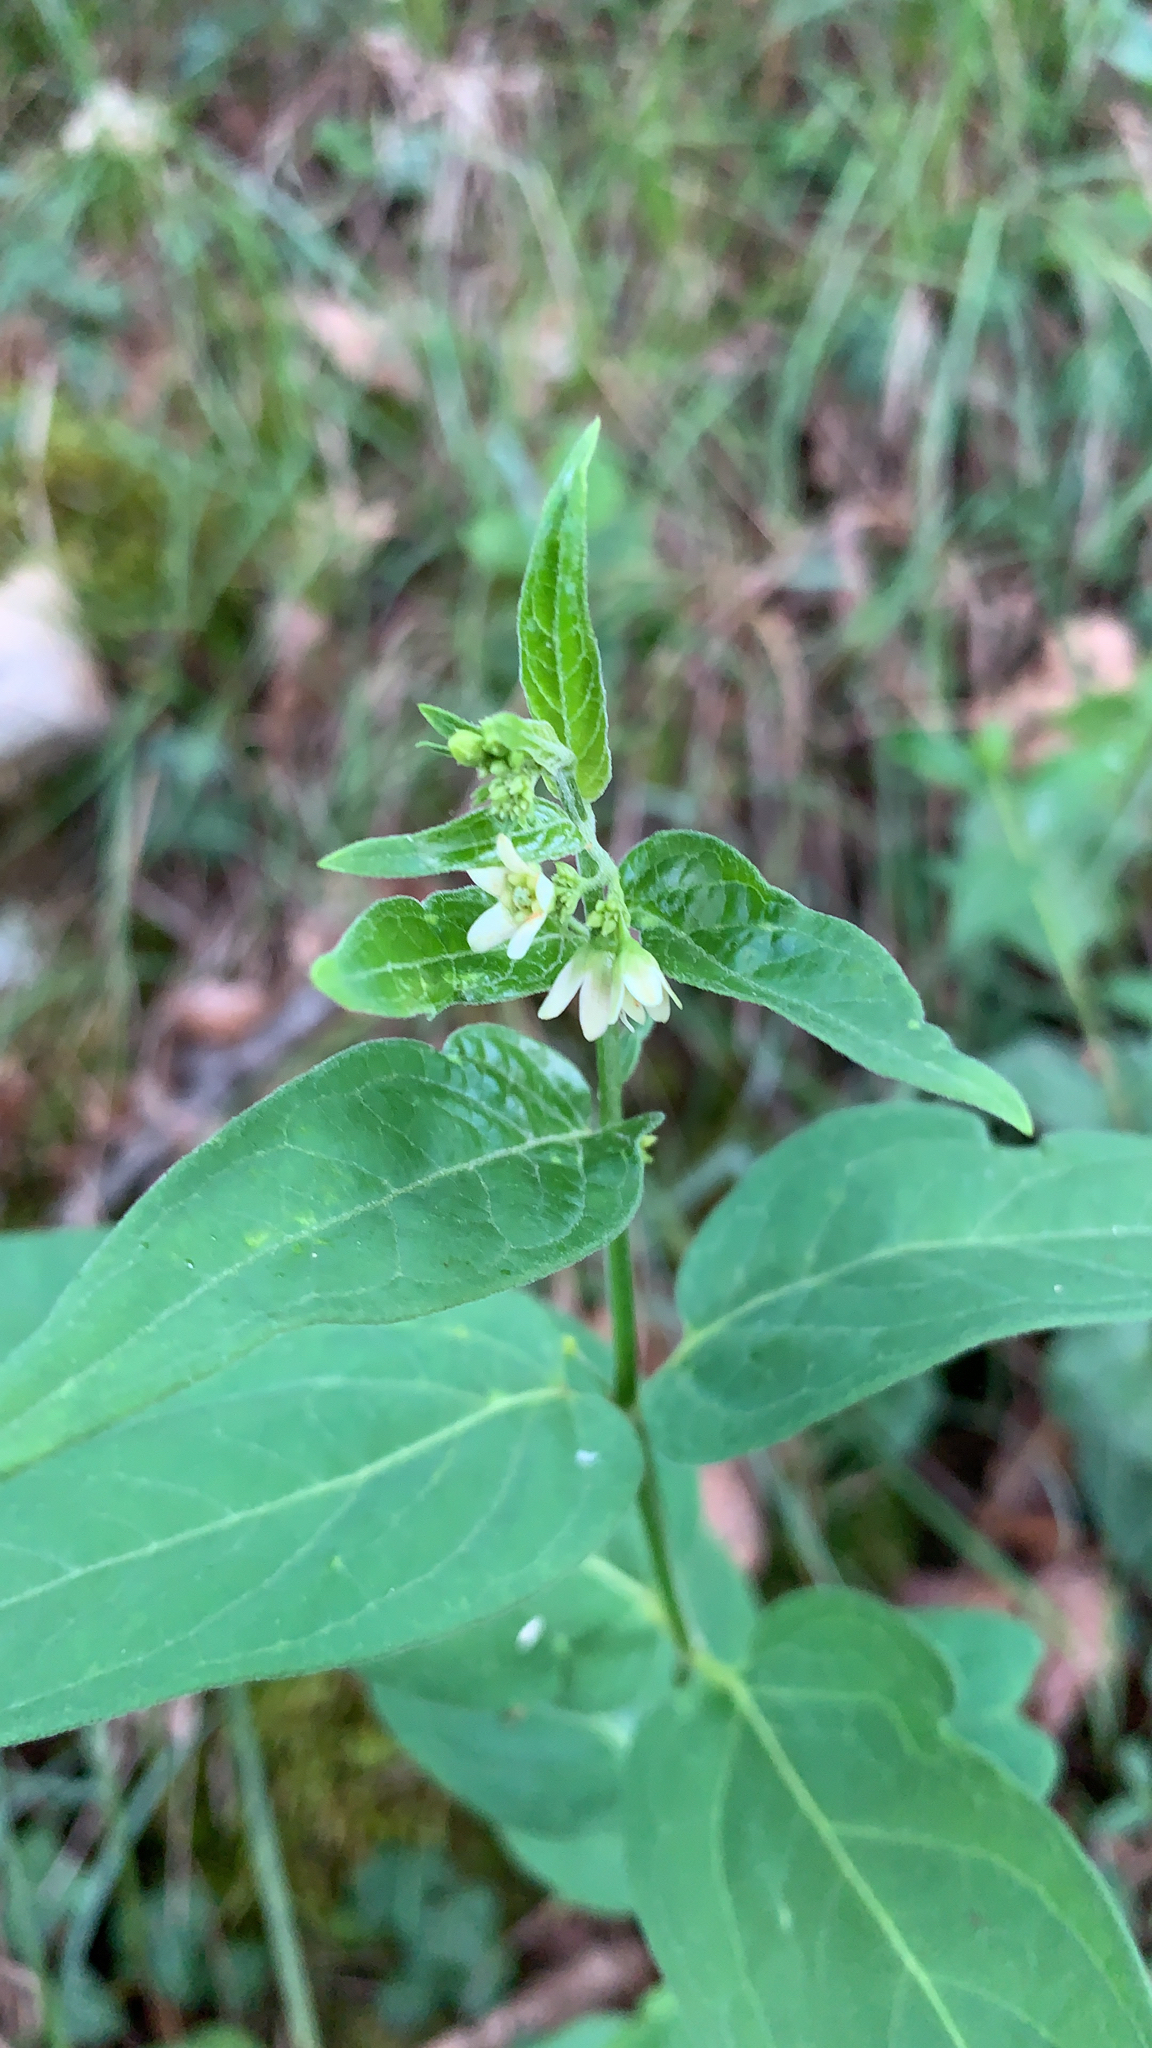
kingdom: Plantae
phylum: Tracheophyta
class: Magnoliopsida
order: Gentianales
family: Apocynaceae
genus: Vincetoxicum
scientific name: Vincetoxicum hirundinaria
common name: White swallowwort
